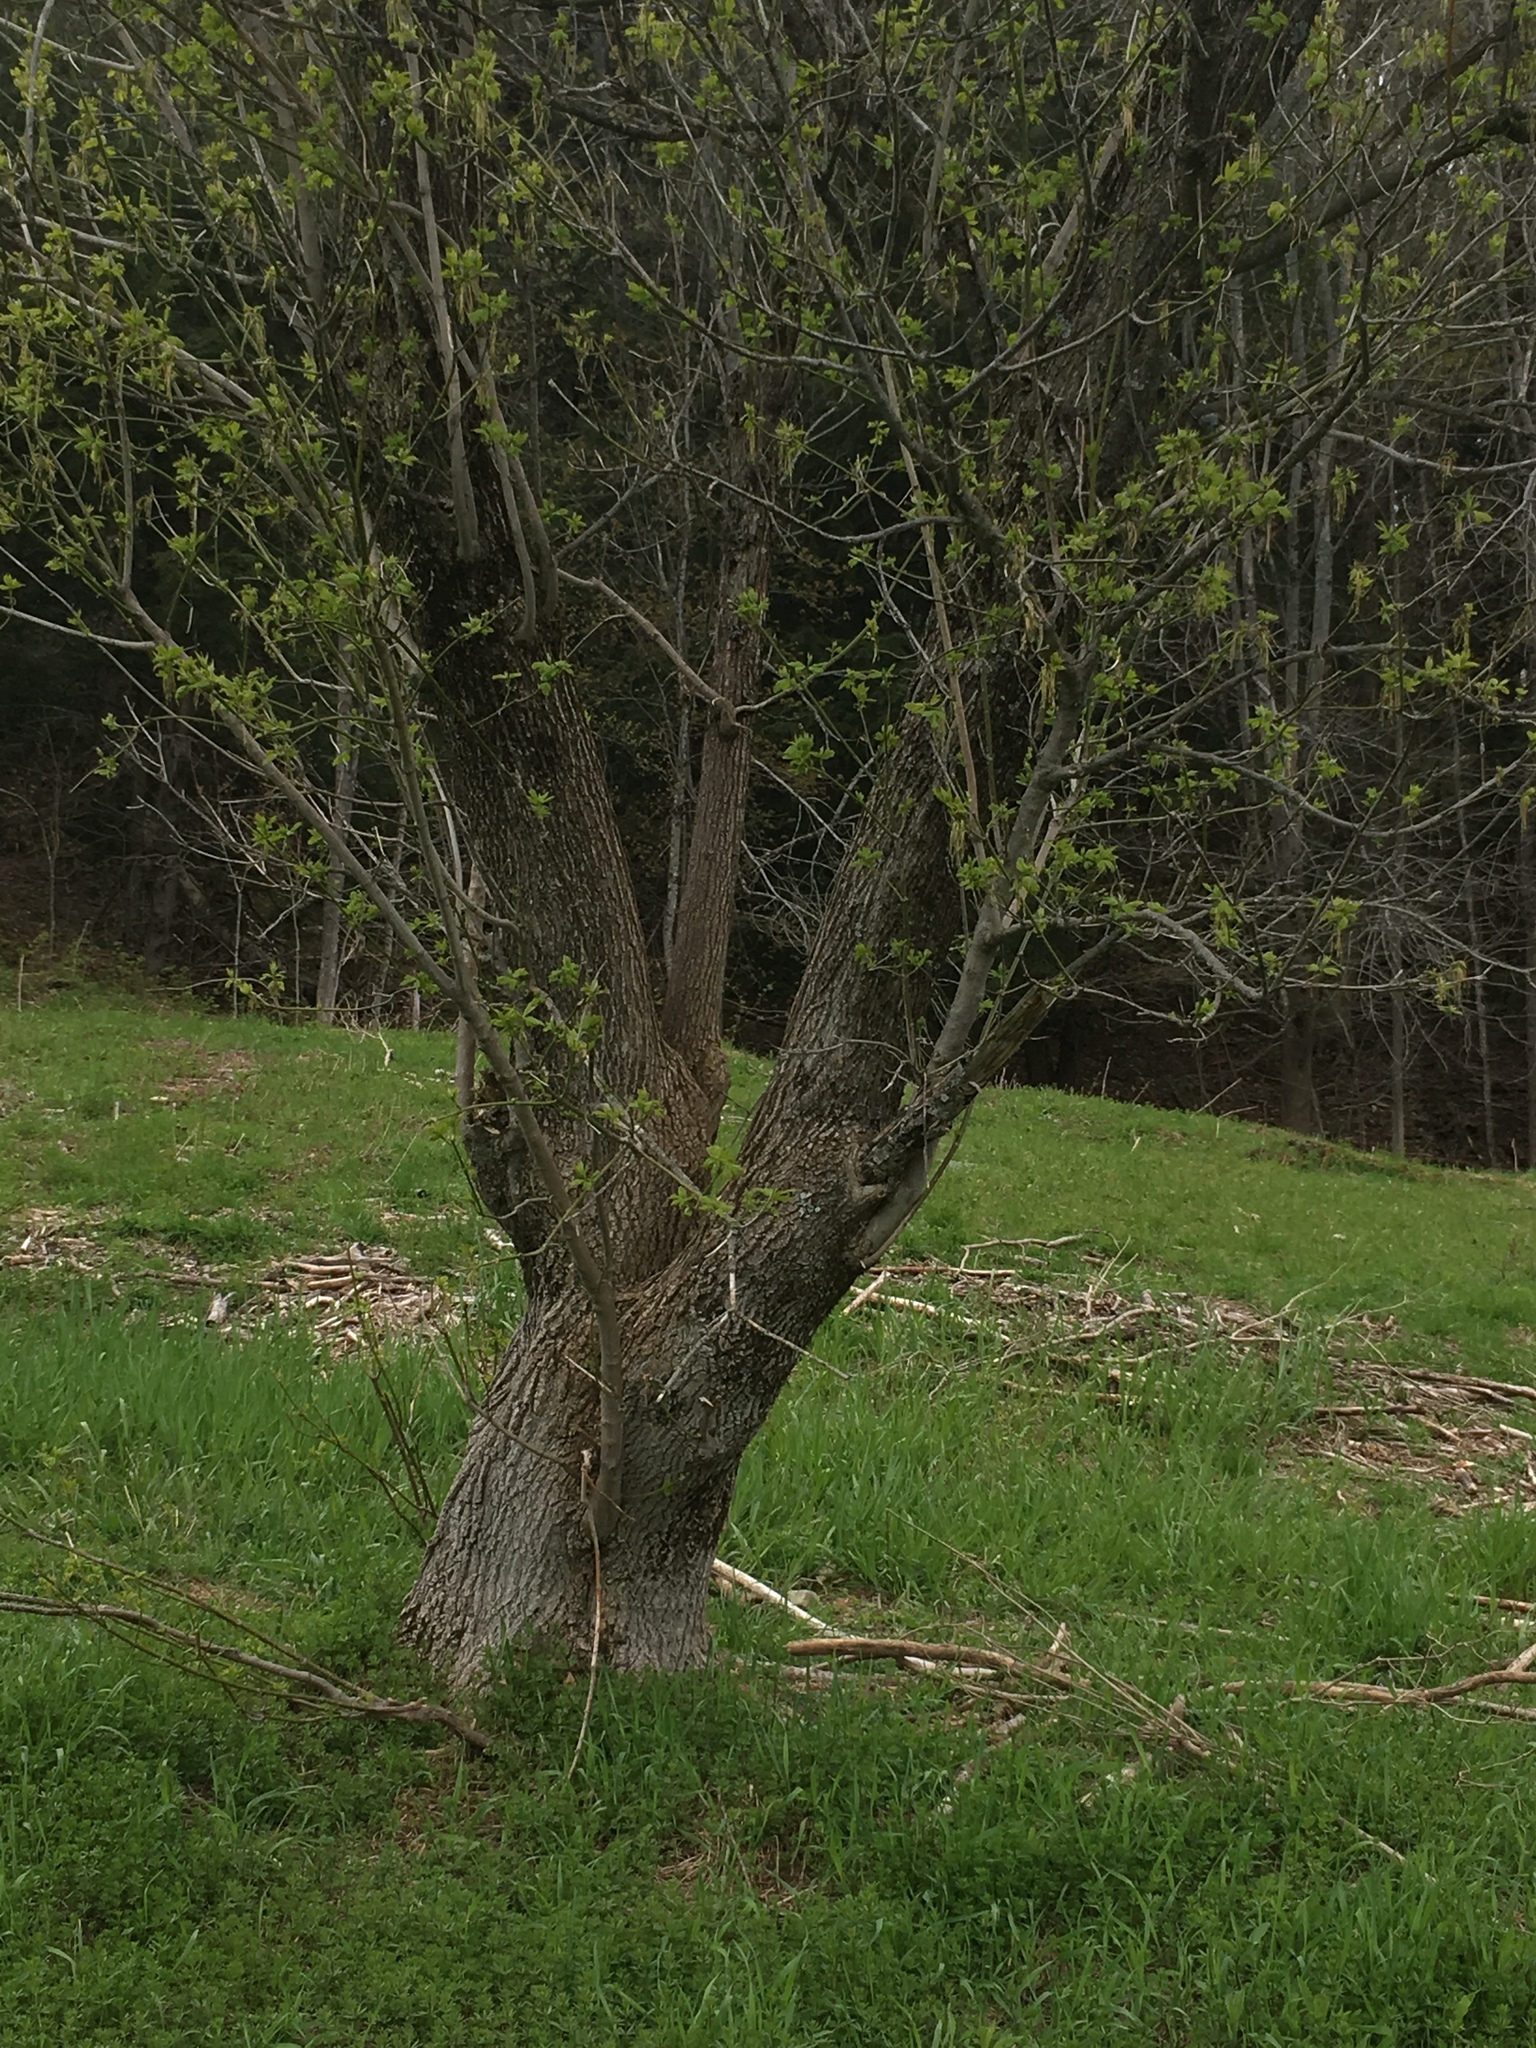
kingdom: Plantae
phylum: Tracheophyta
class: Magnoliopsida
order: Sapindales
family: Sapindaceae
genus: Acer
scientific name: Acer negundo
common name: Ashleaf maple
